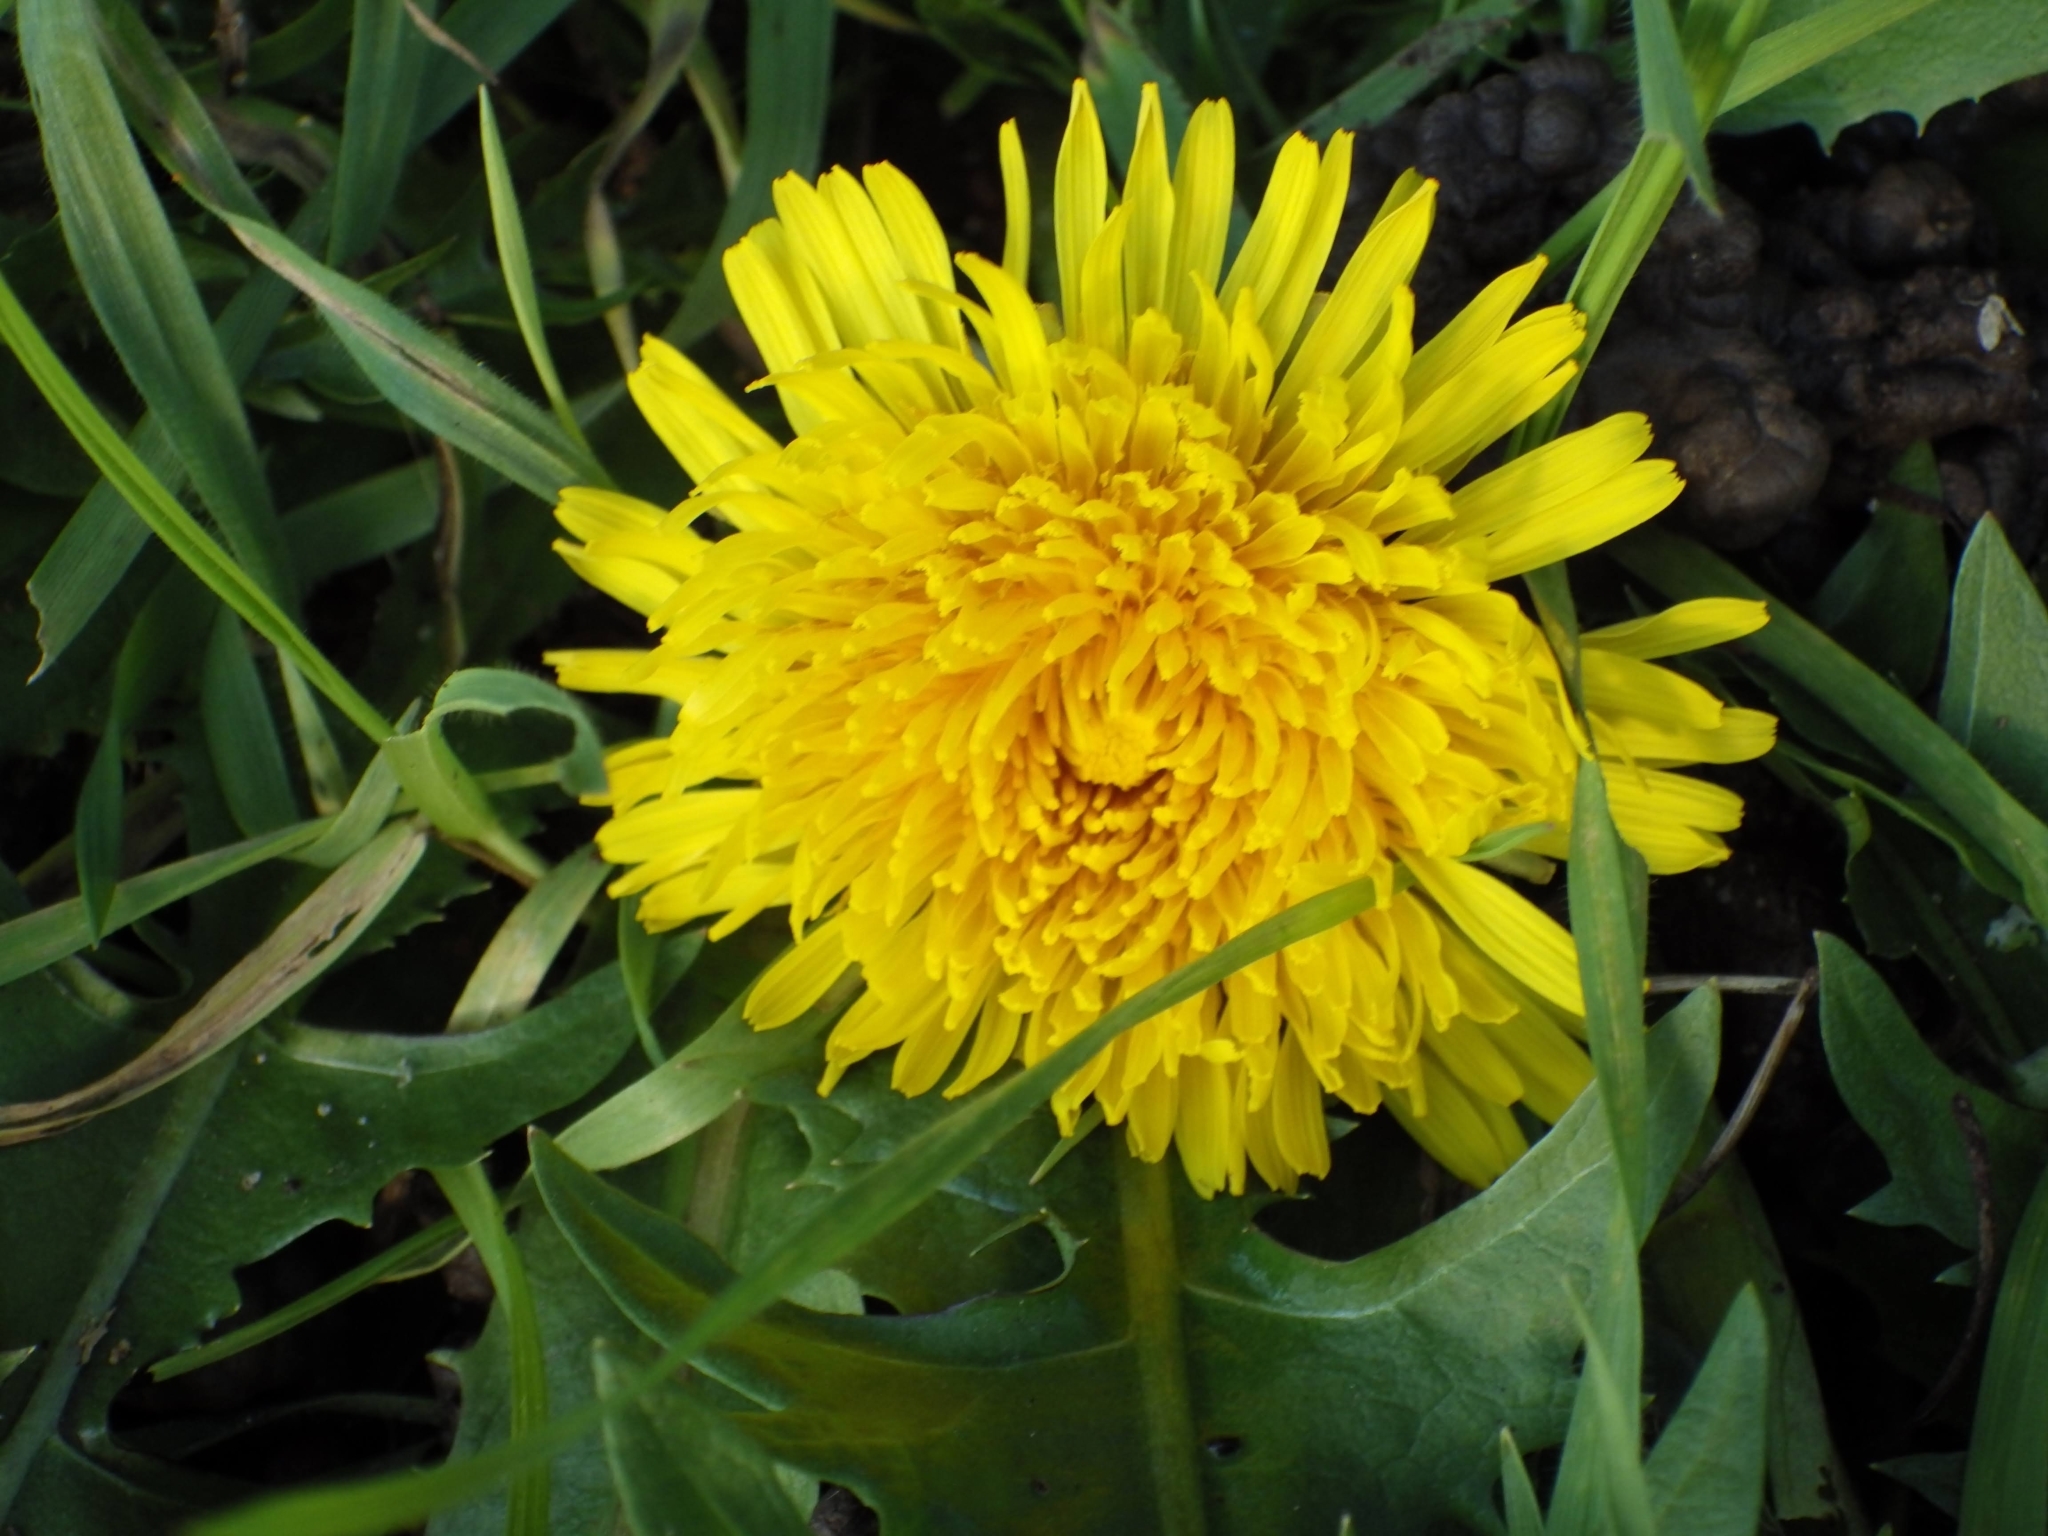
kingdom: Plantae
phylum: Tracheophyta
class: Magnoliopsida
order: Asterales
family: Asteraceae
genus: Taraxacum
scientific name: Taraxacum officinale
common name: Common dandelion
